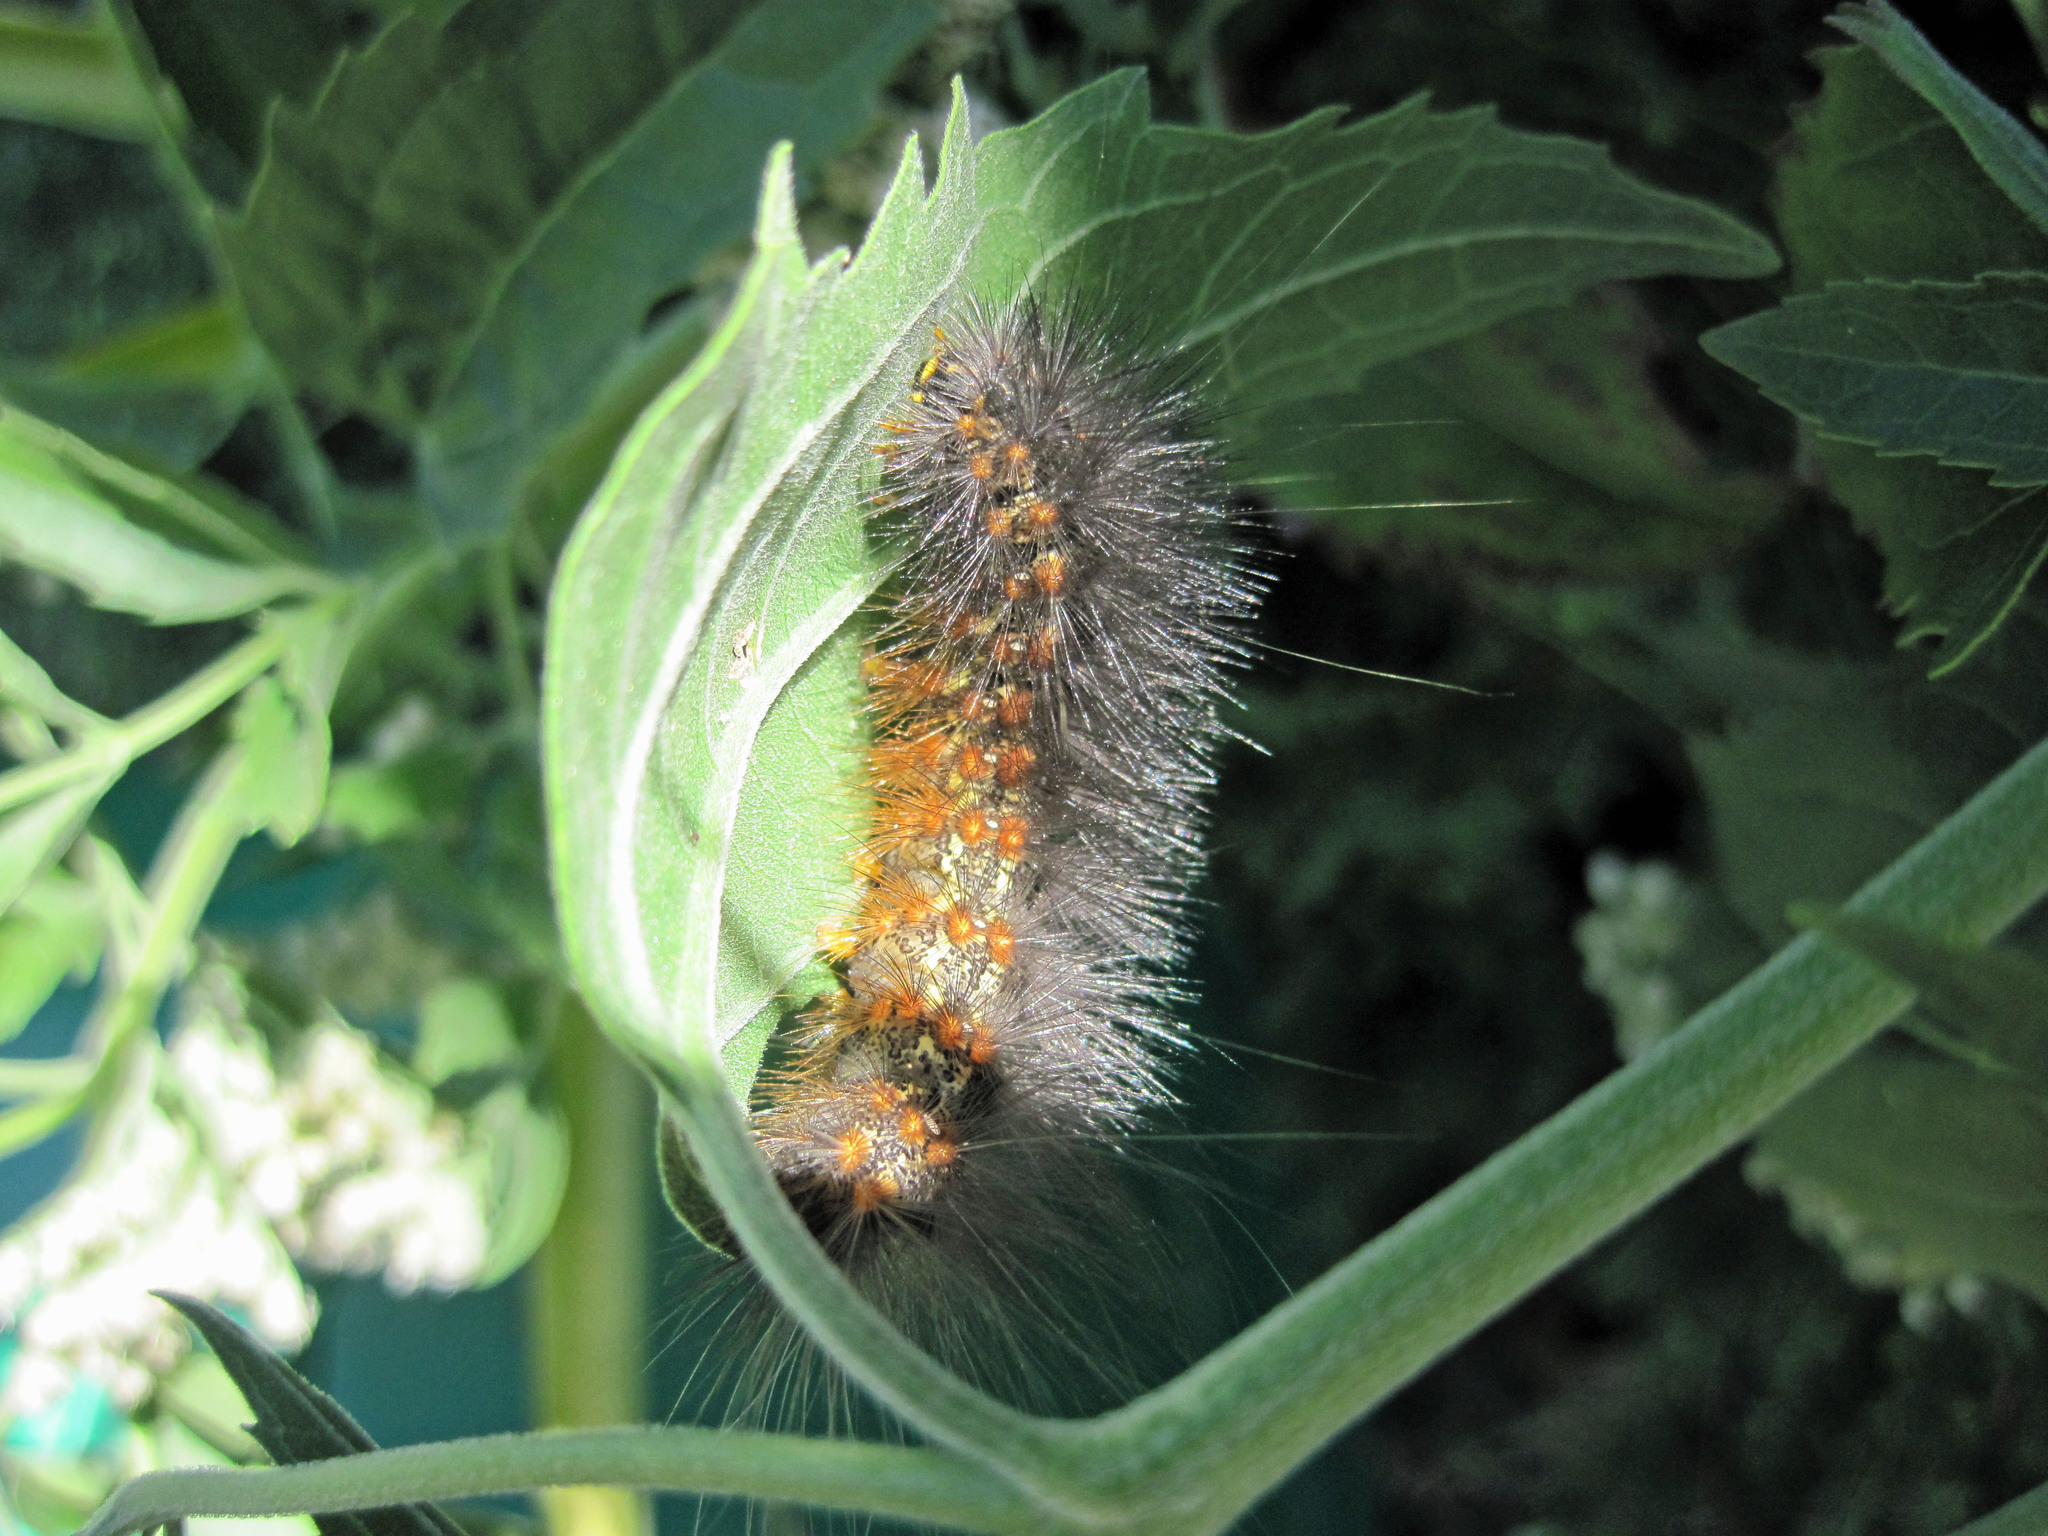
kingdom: Animalia
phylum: Arthropoda
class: Insecta
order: Lepidoptera
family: Erebidae
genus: Estigmene
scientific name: Estigmene acrea
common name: Salt marsh moth
